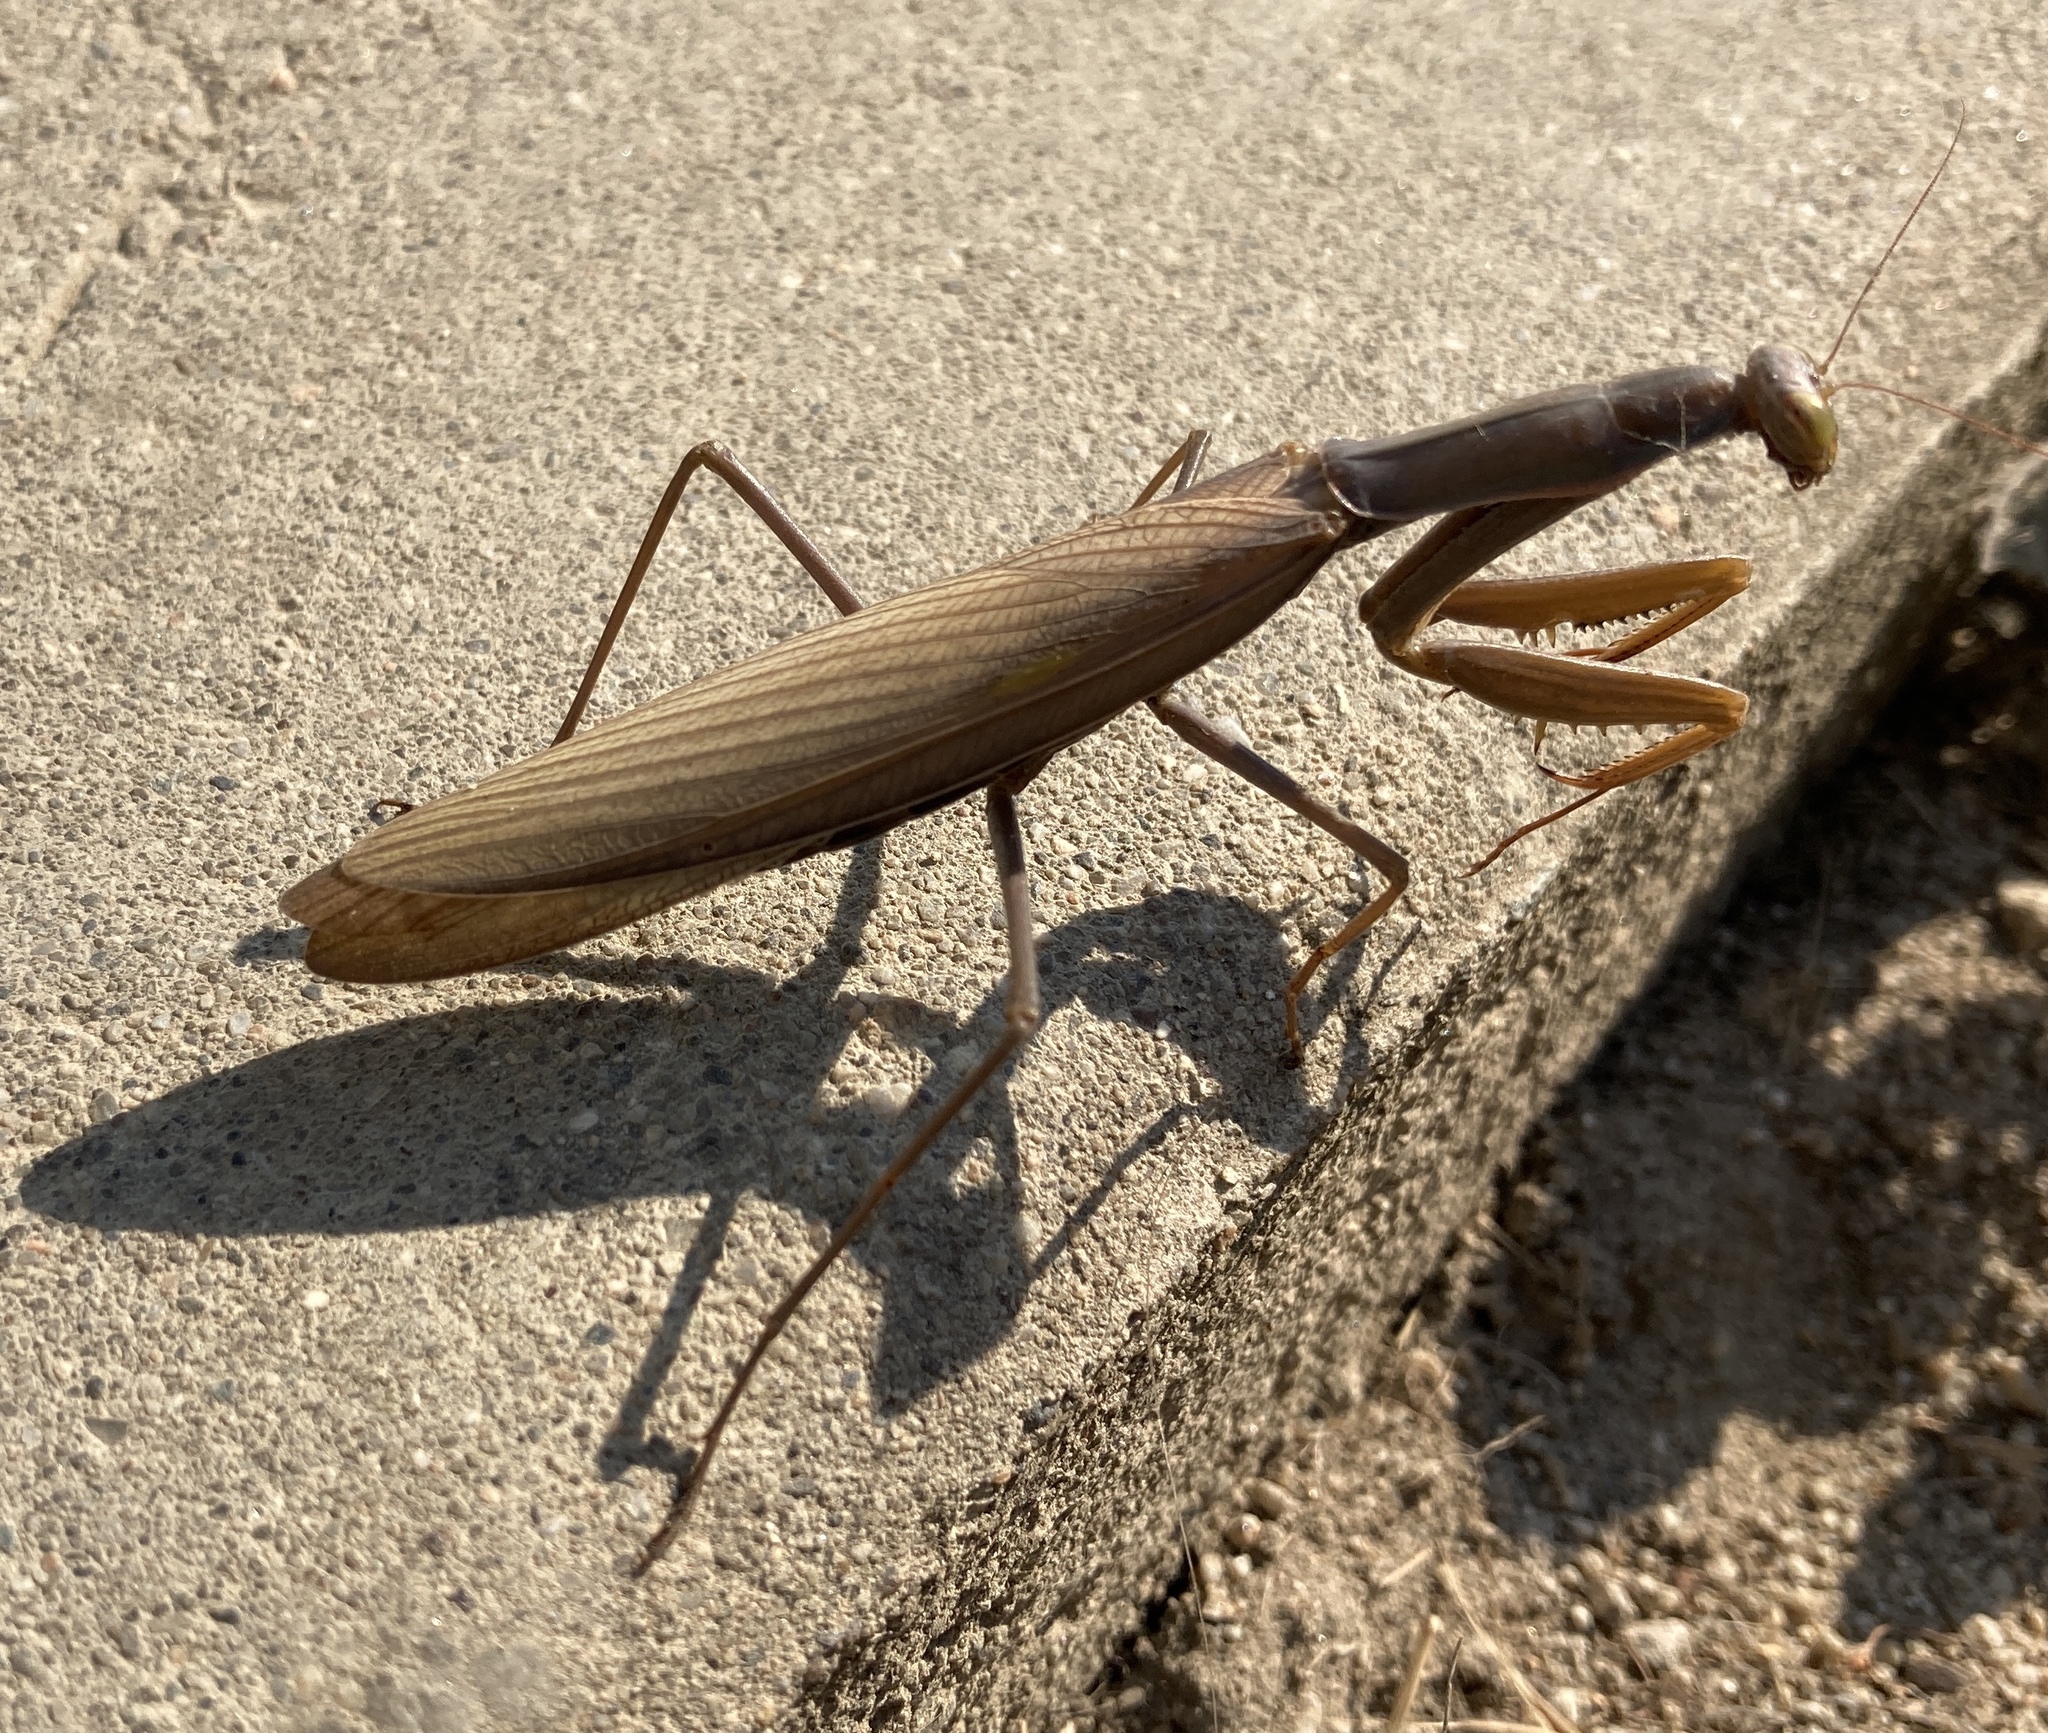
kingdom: Animalia
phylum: Arthropoda
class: Insecta
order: Mantodea
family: Mantidae
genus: Mantis
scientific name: Mantis religiosa
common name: Praying mantis
